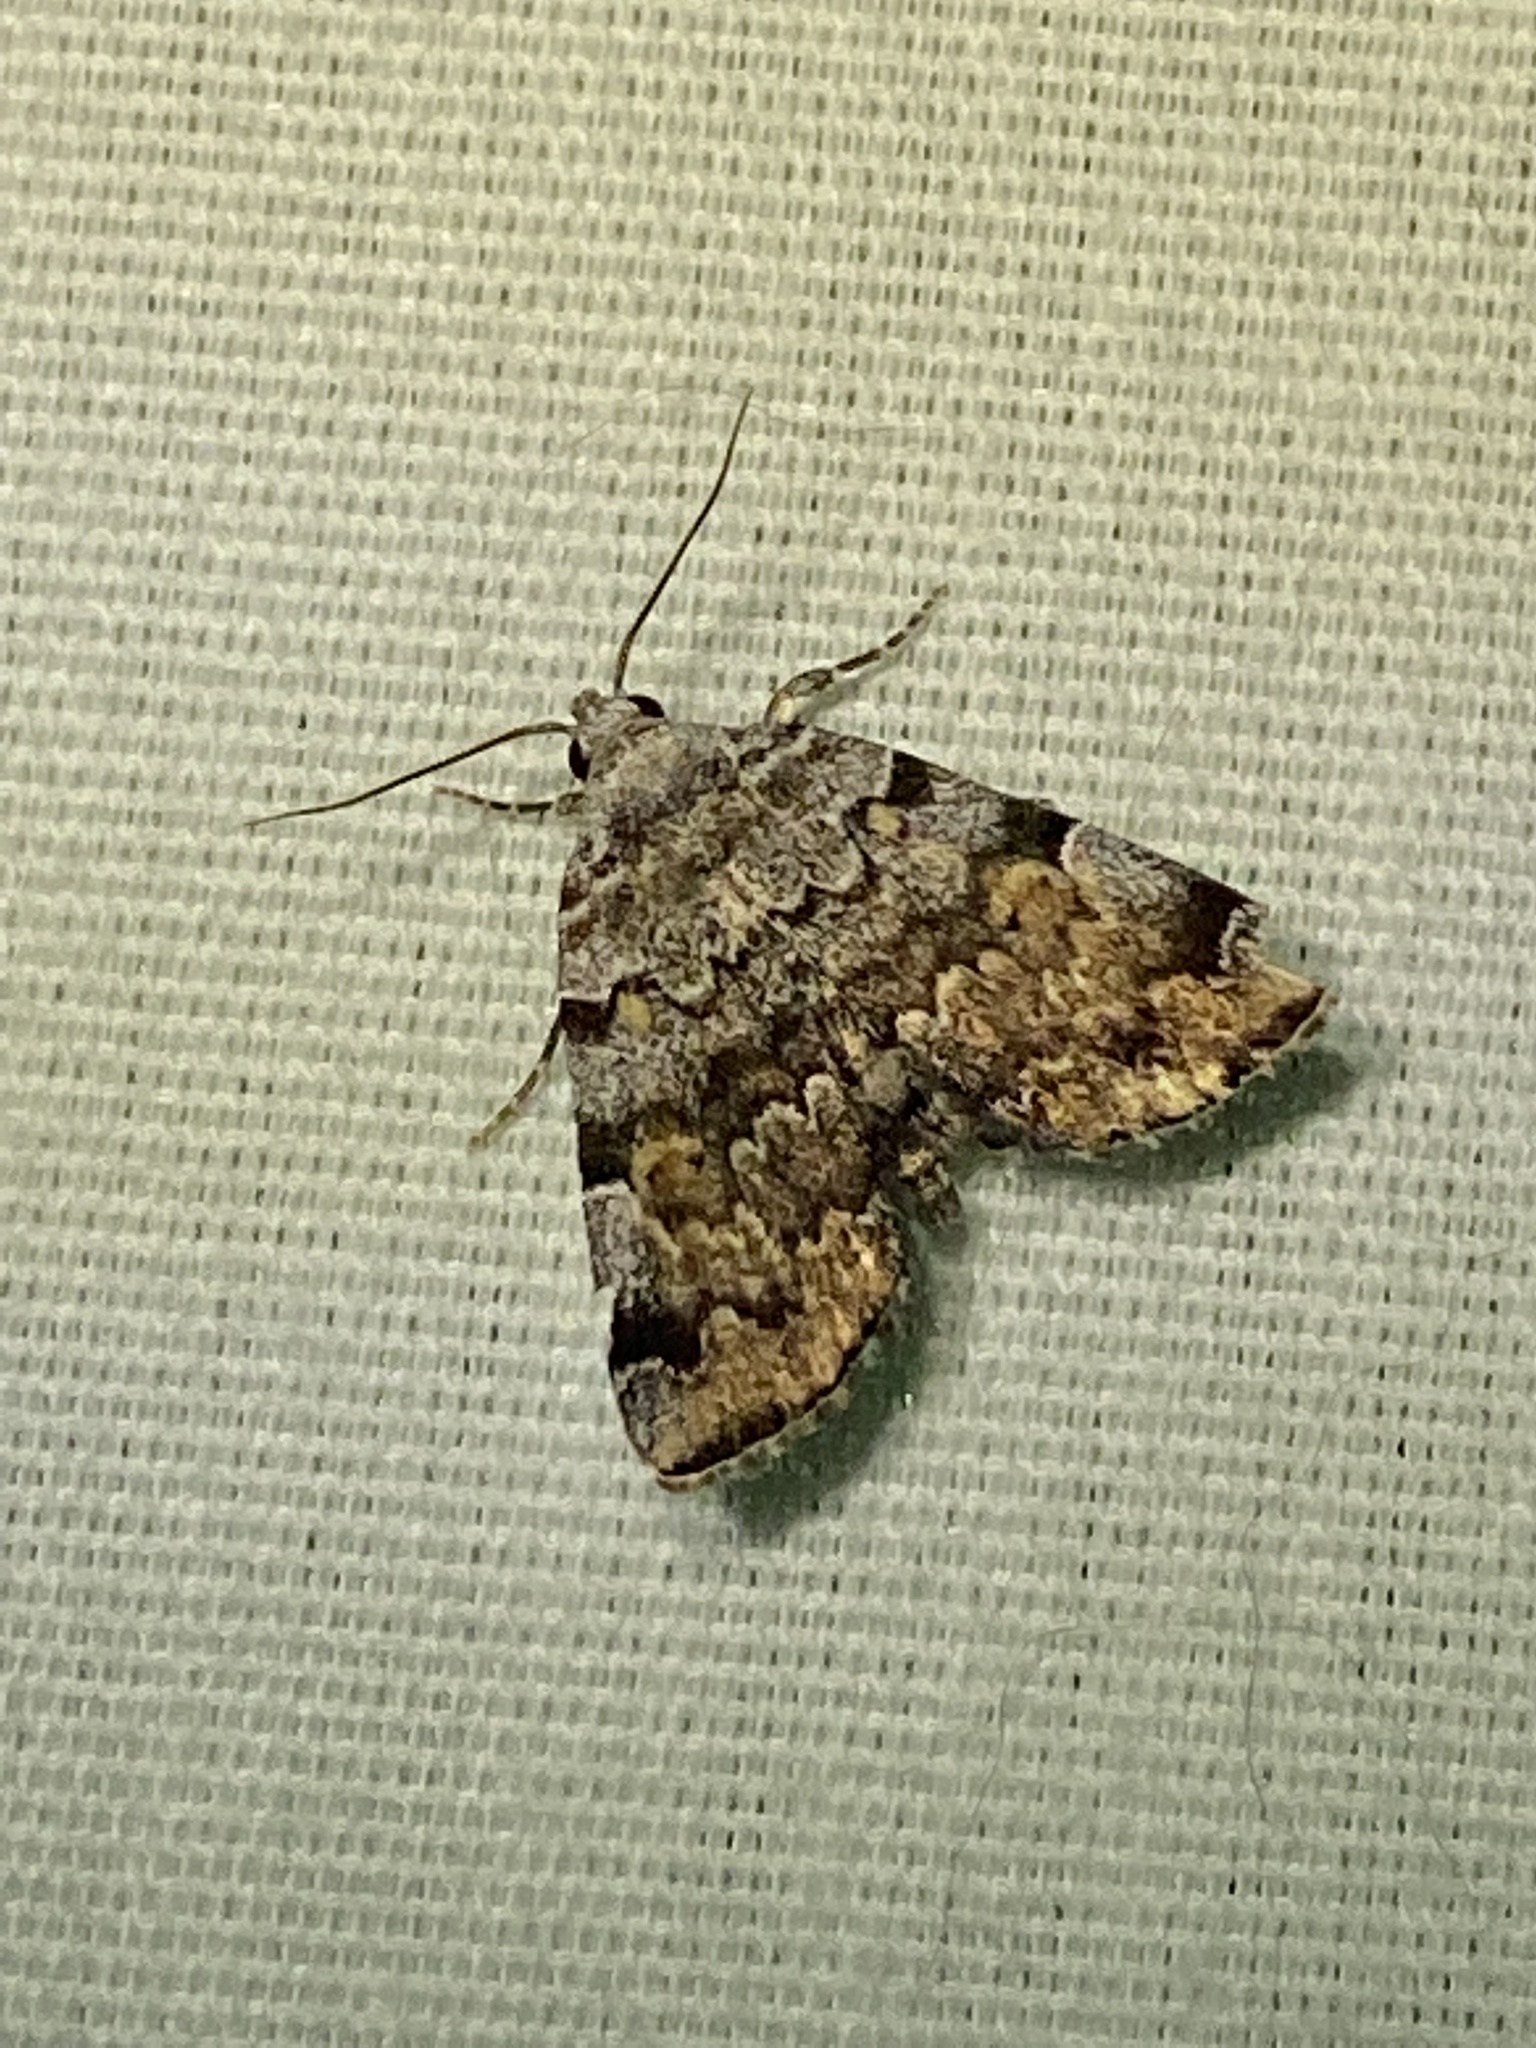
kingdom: Animalia
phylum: Arthropoda
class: Insecta
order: Lepidoptera
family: Erebidae
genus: Idia
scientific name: Idia americalis
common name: American idia moth
